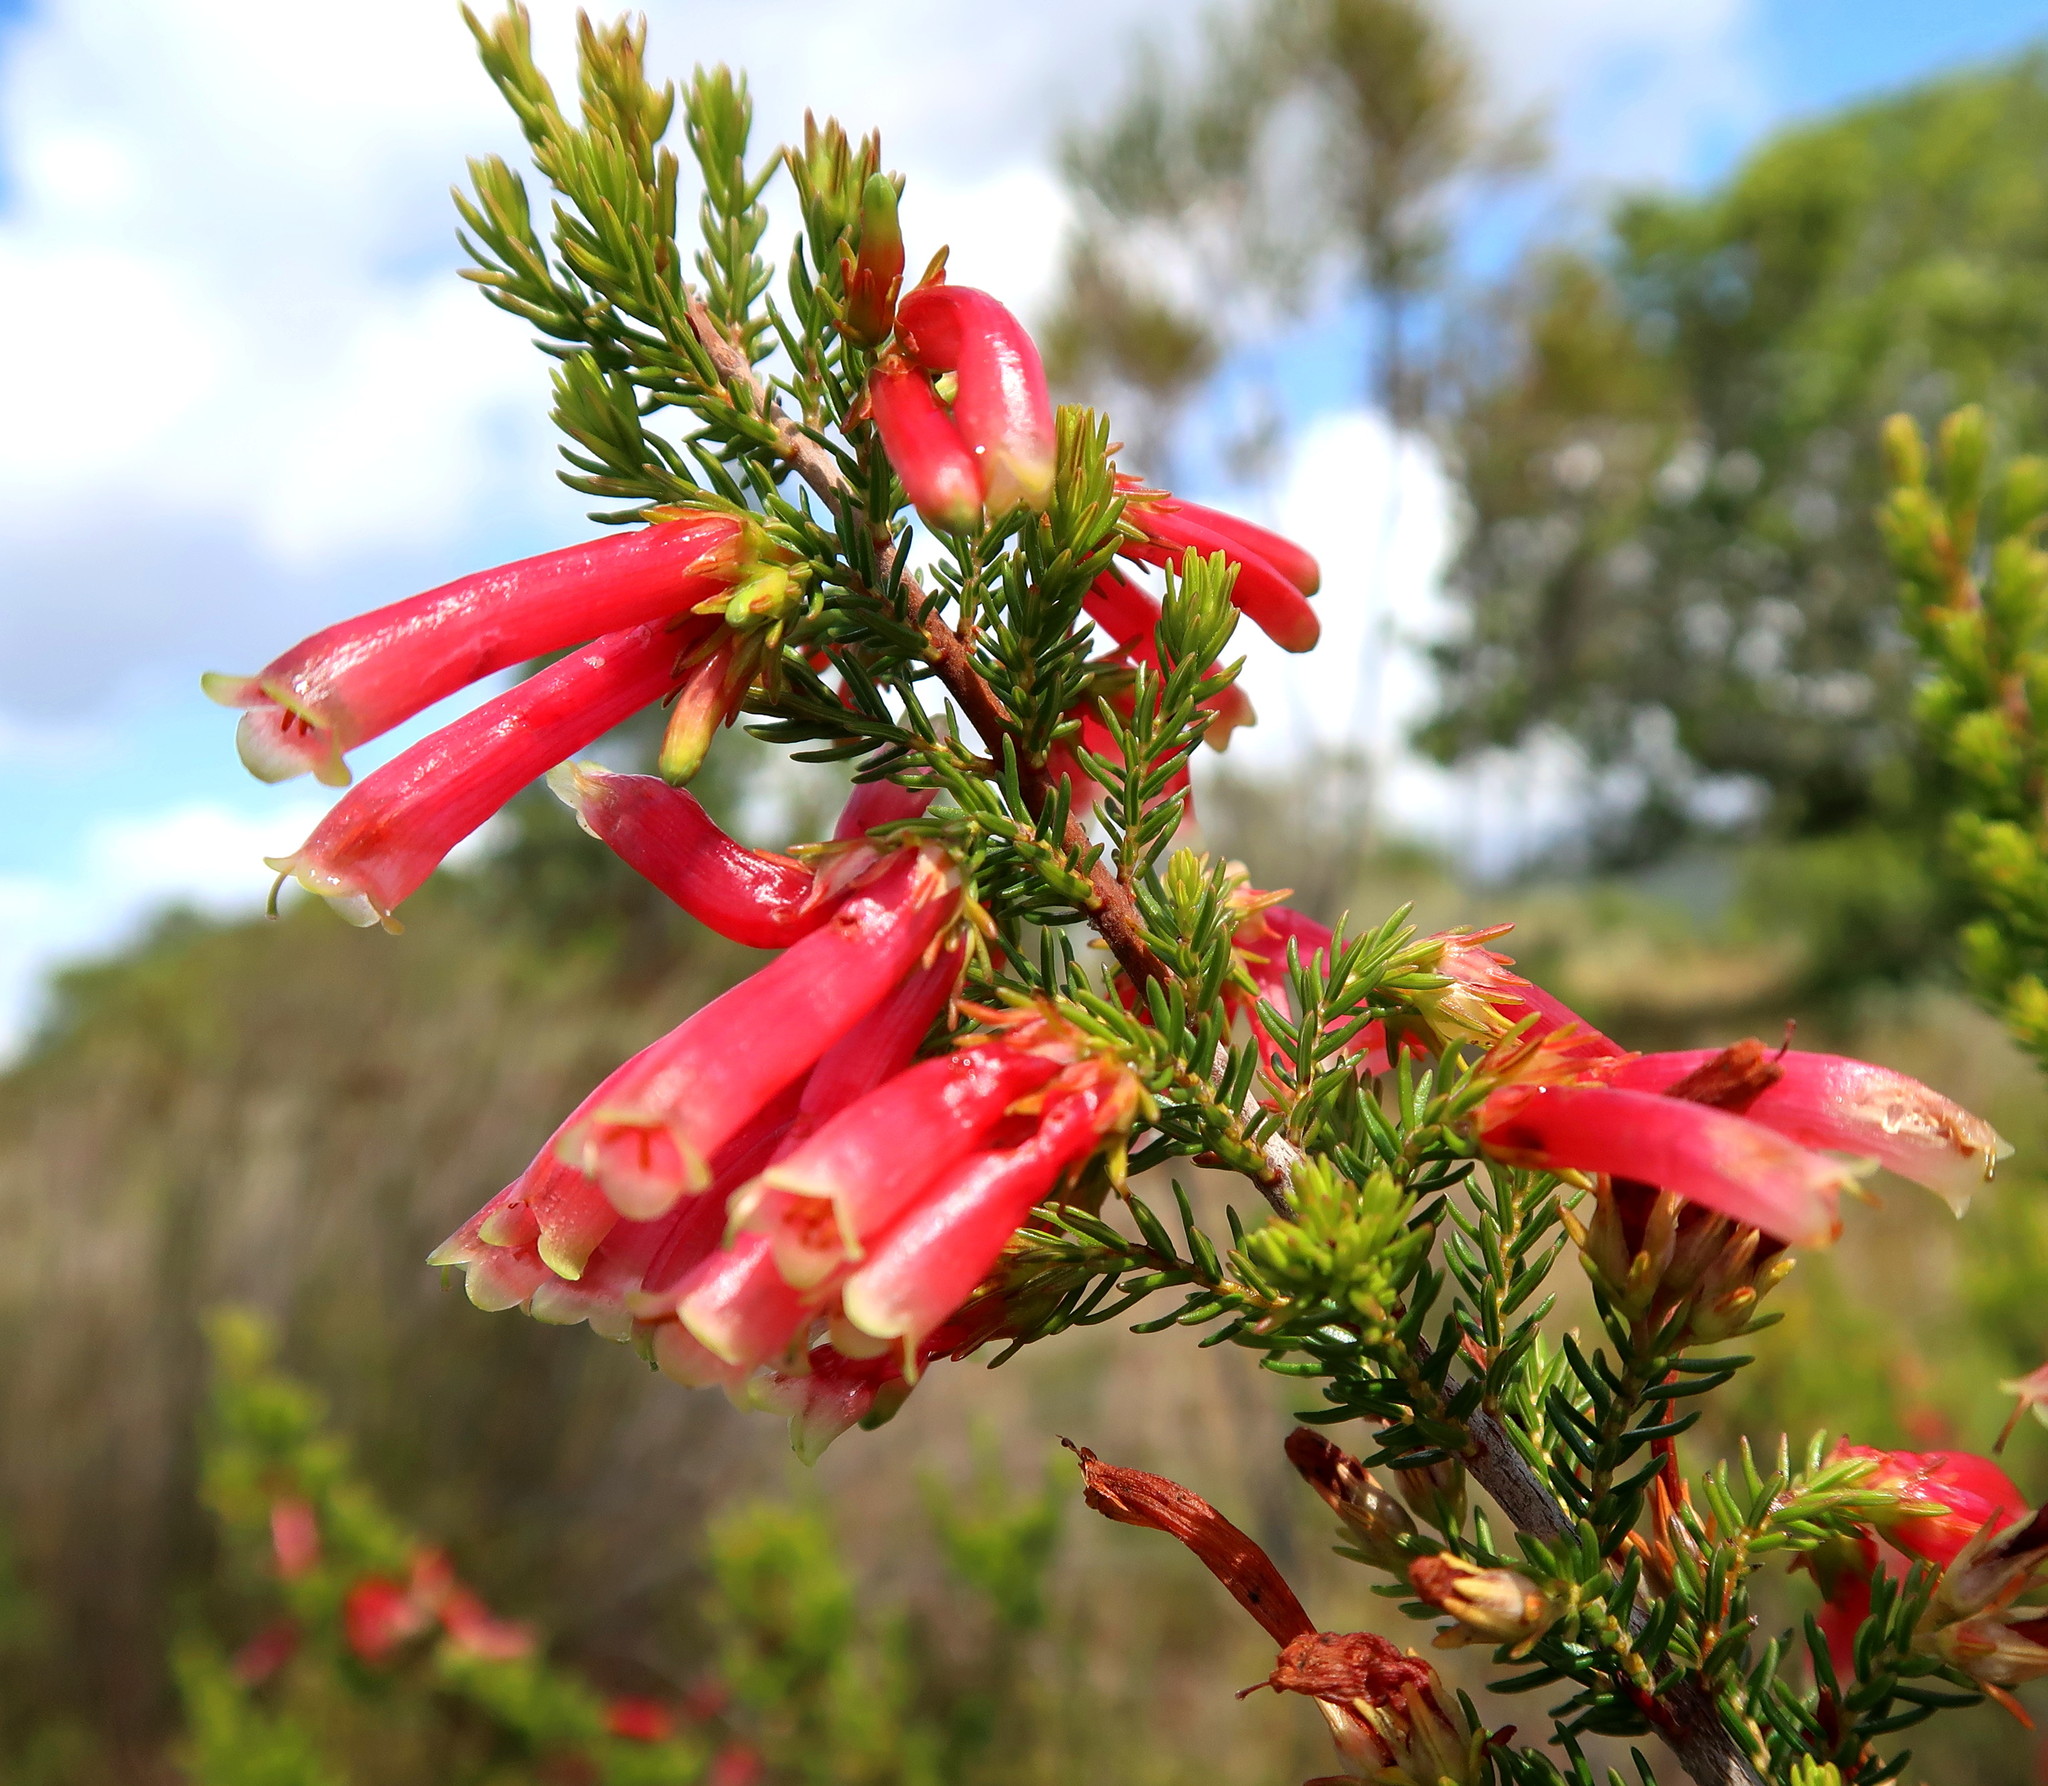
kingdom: Plantae
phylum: Tracheophyta
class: Magnoliopsida
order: Ericales
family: Ericaceae
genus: Erica
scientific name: Erica discolor
